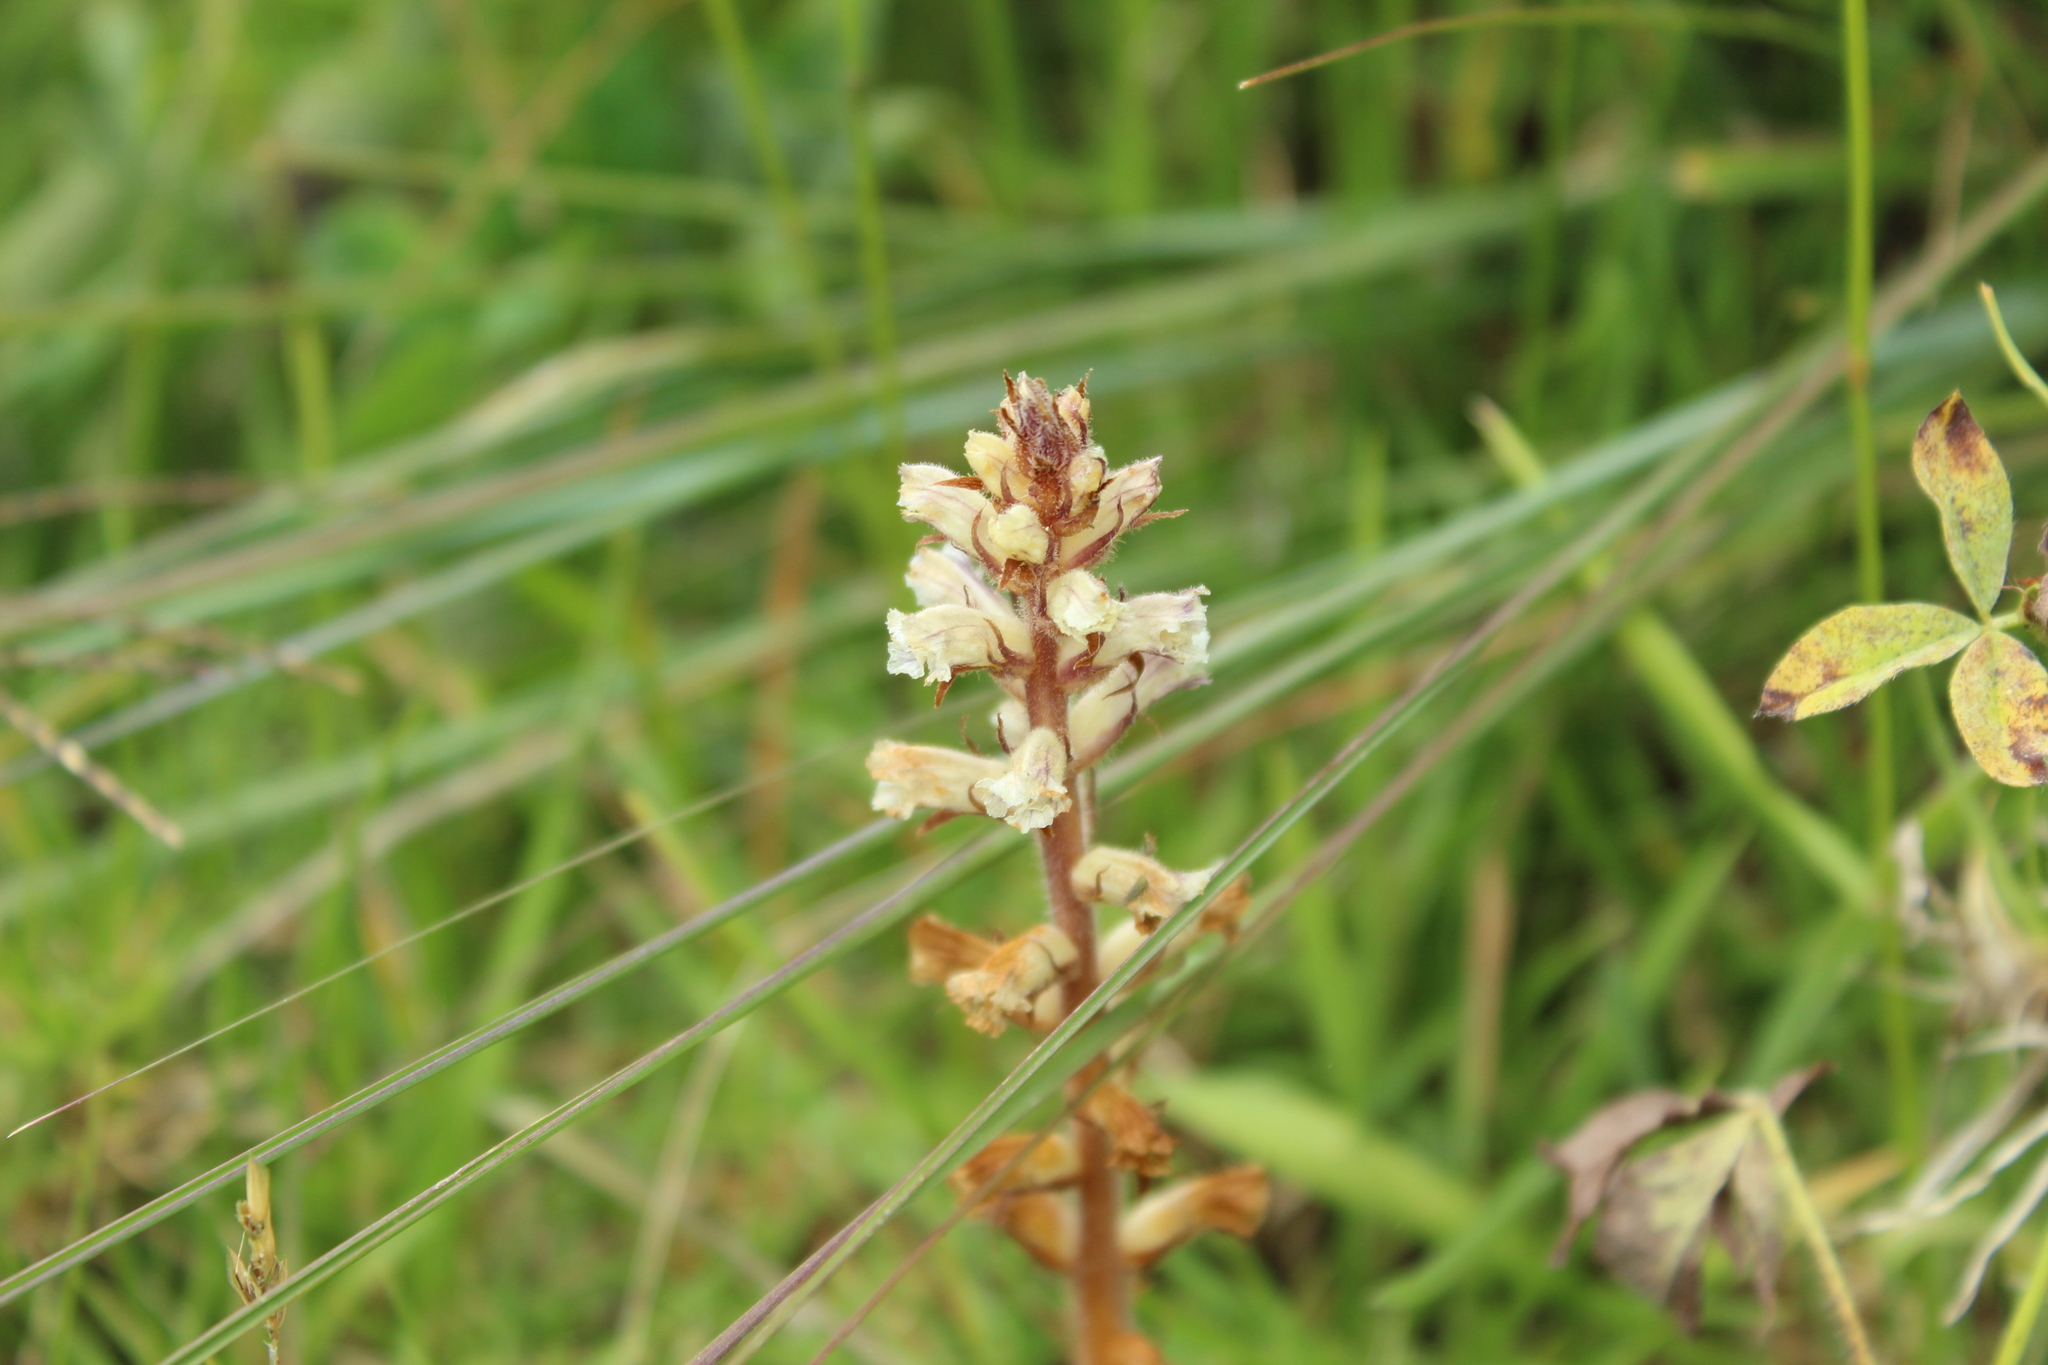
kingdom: Plantae
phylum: Tracheophyta
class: Magnoliopsida
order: Lamiales
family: Orobanchaceae
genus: Orobanche
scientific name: Orobanche minor
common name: Common broomrape
